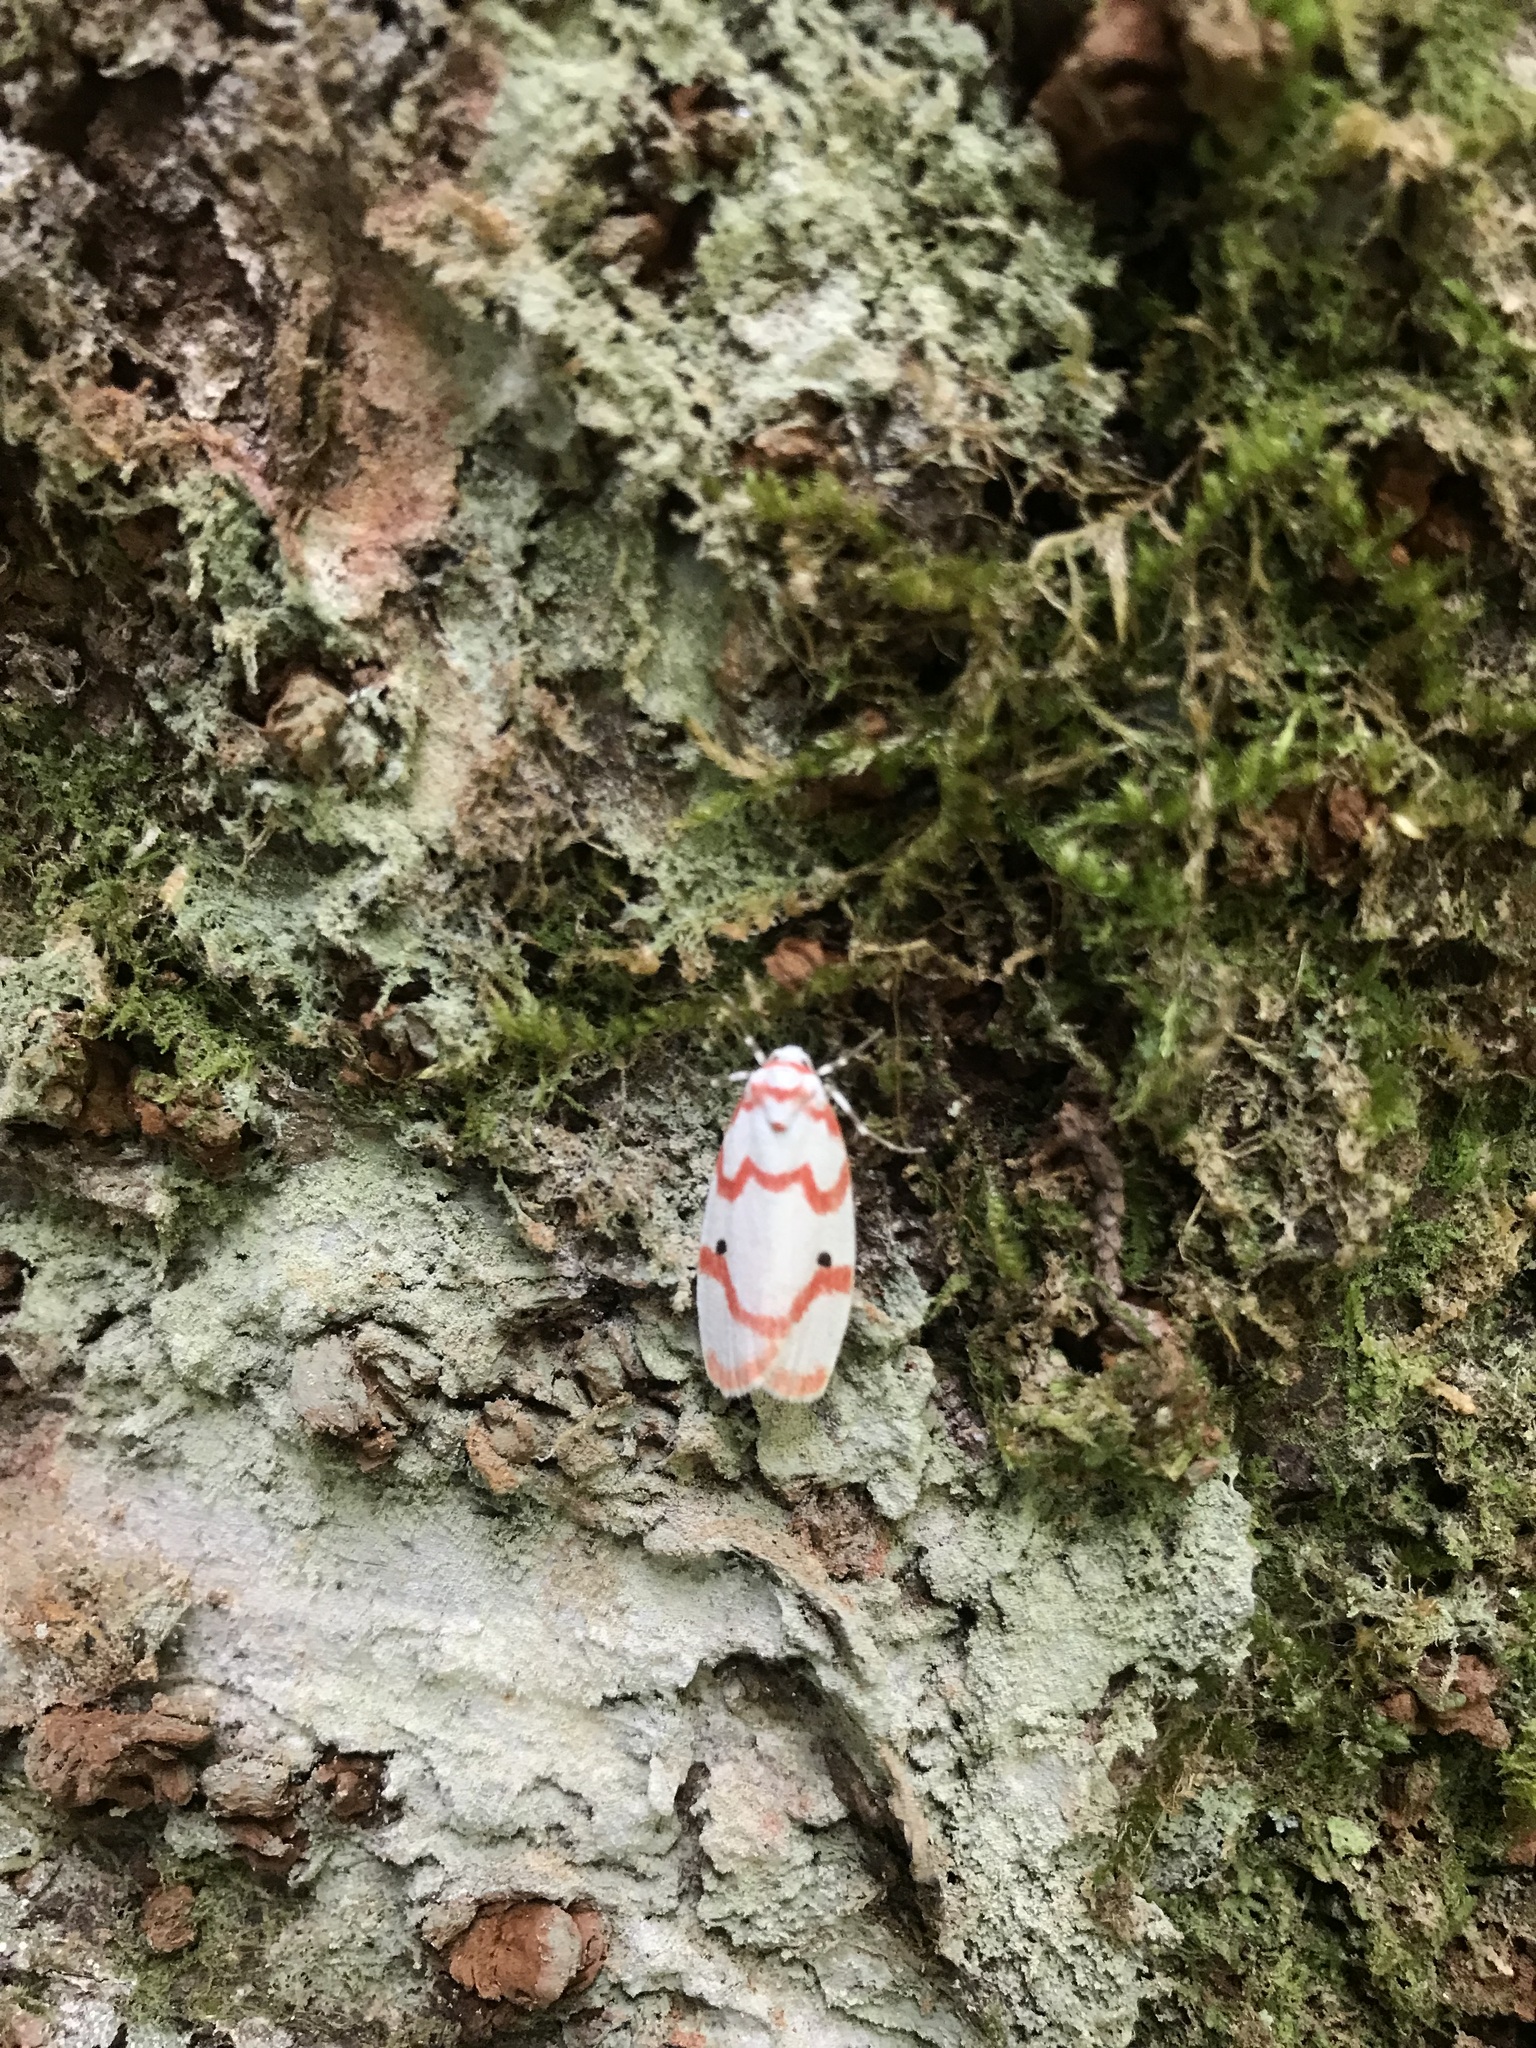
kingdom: Animalia
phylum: Arthropoda
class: Insecta
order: Lepidoptera
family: Erebidae
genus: Cyana
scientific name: Cyana hamata
